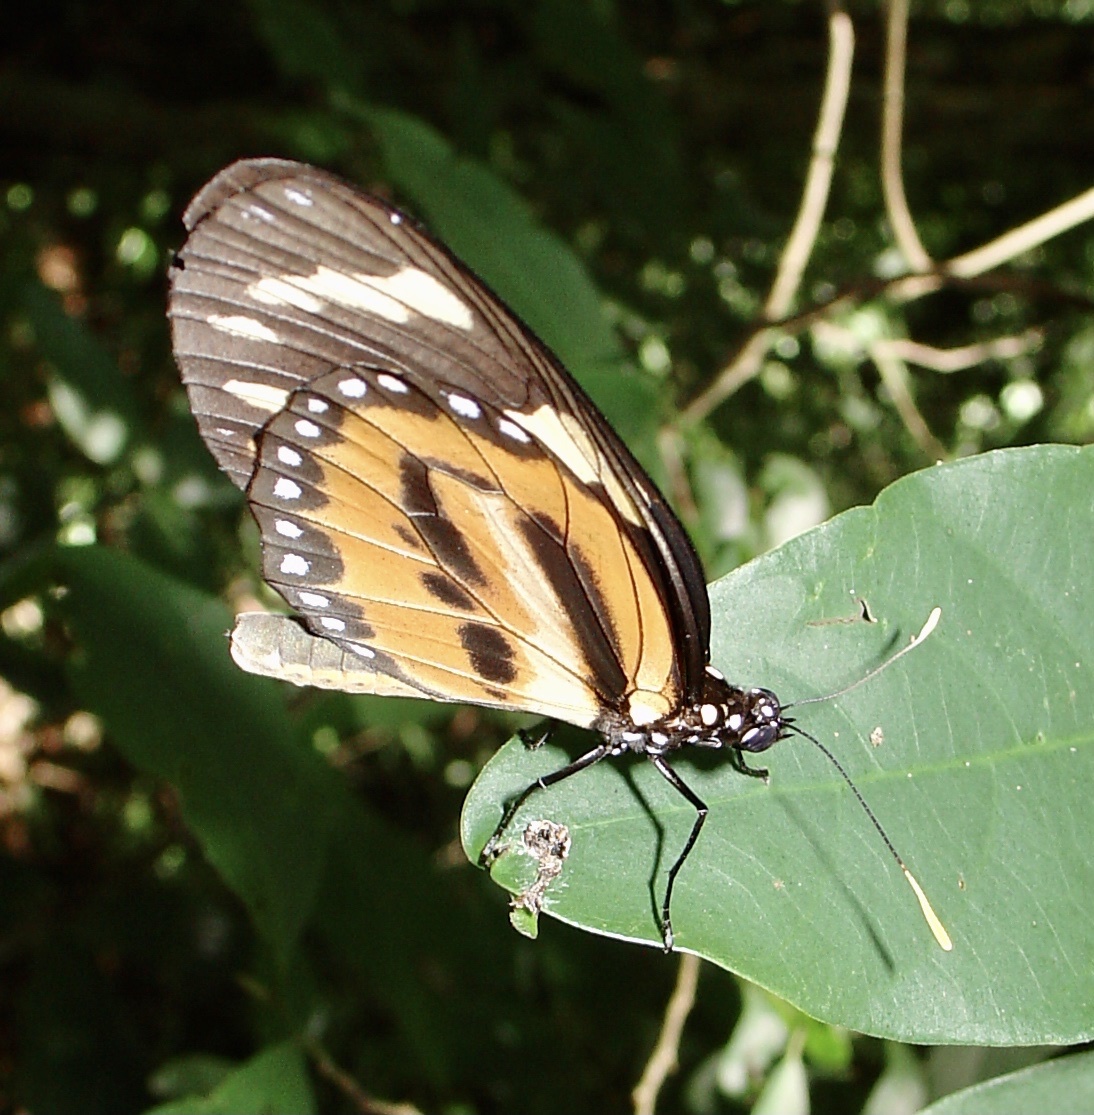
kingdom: Animalia
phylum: Arthropoda
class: Insecta
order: Lepidoptera
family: Nymphalidae
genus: Lycorea
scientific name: Lycorea cleobaea
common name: Tiger mimic-queen
